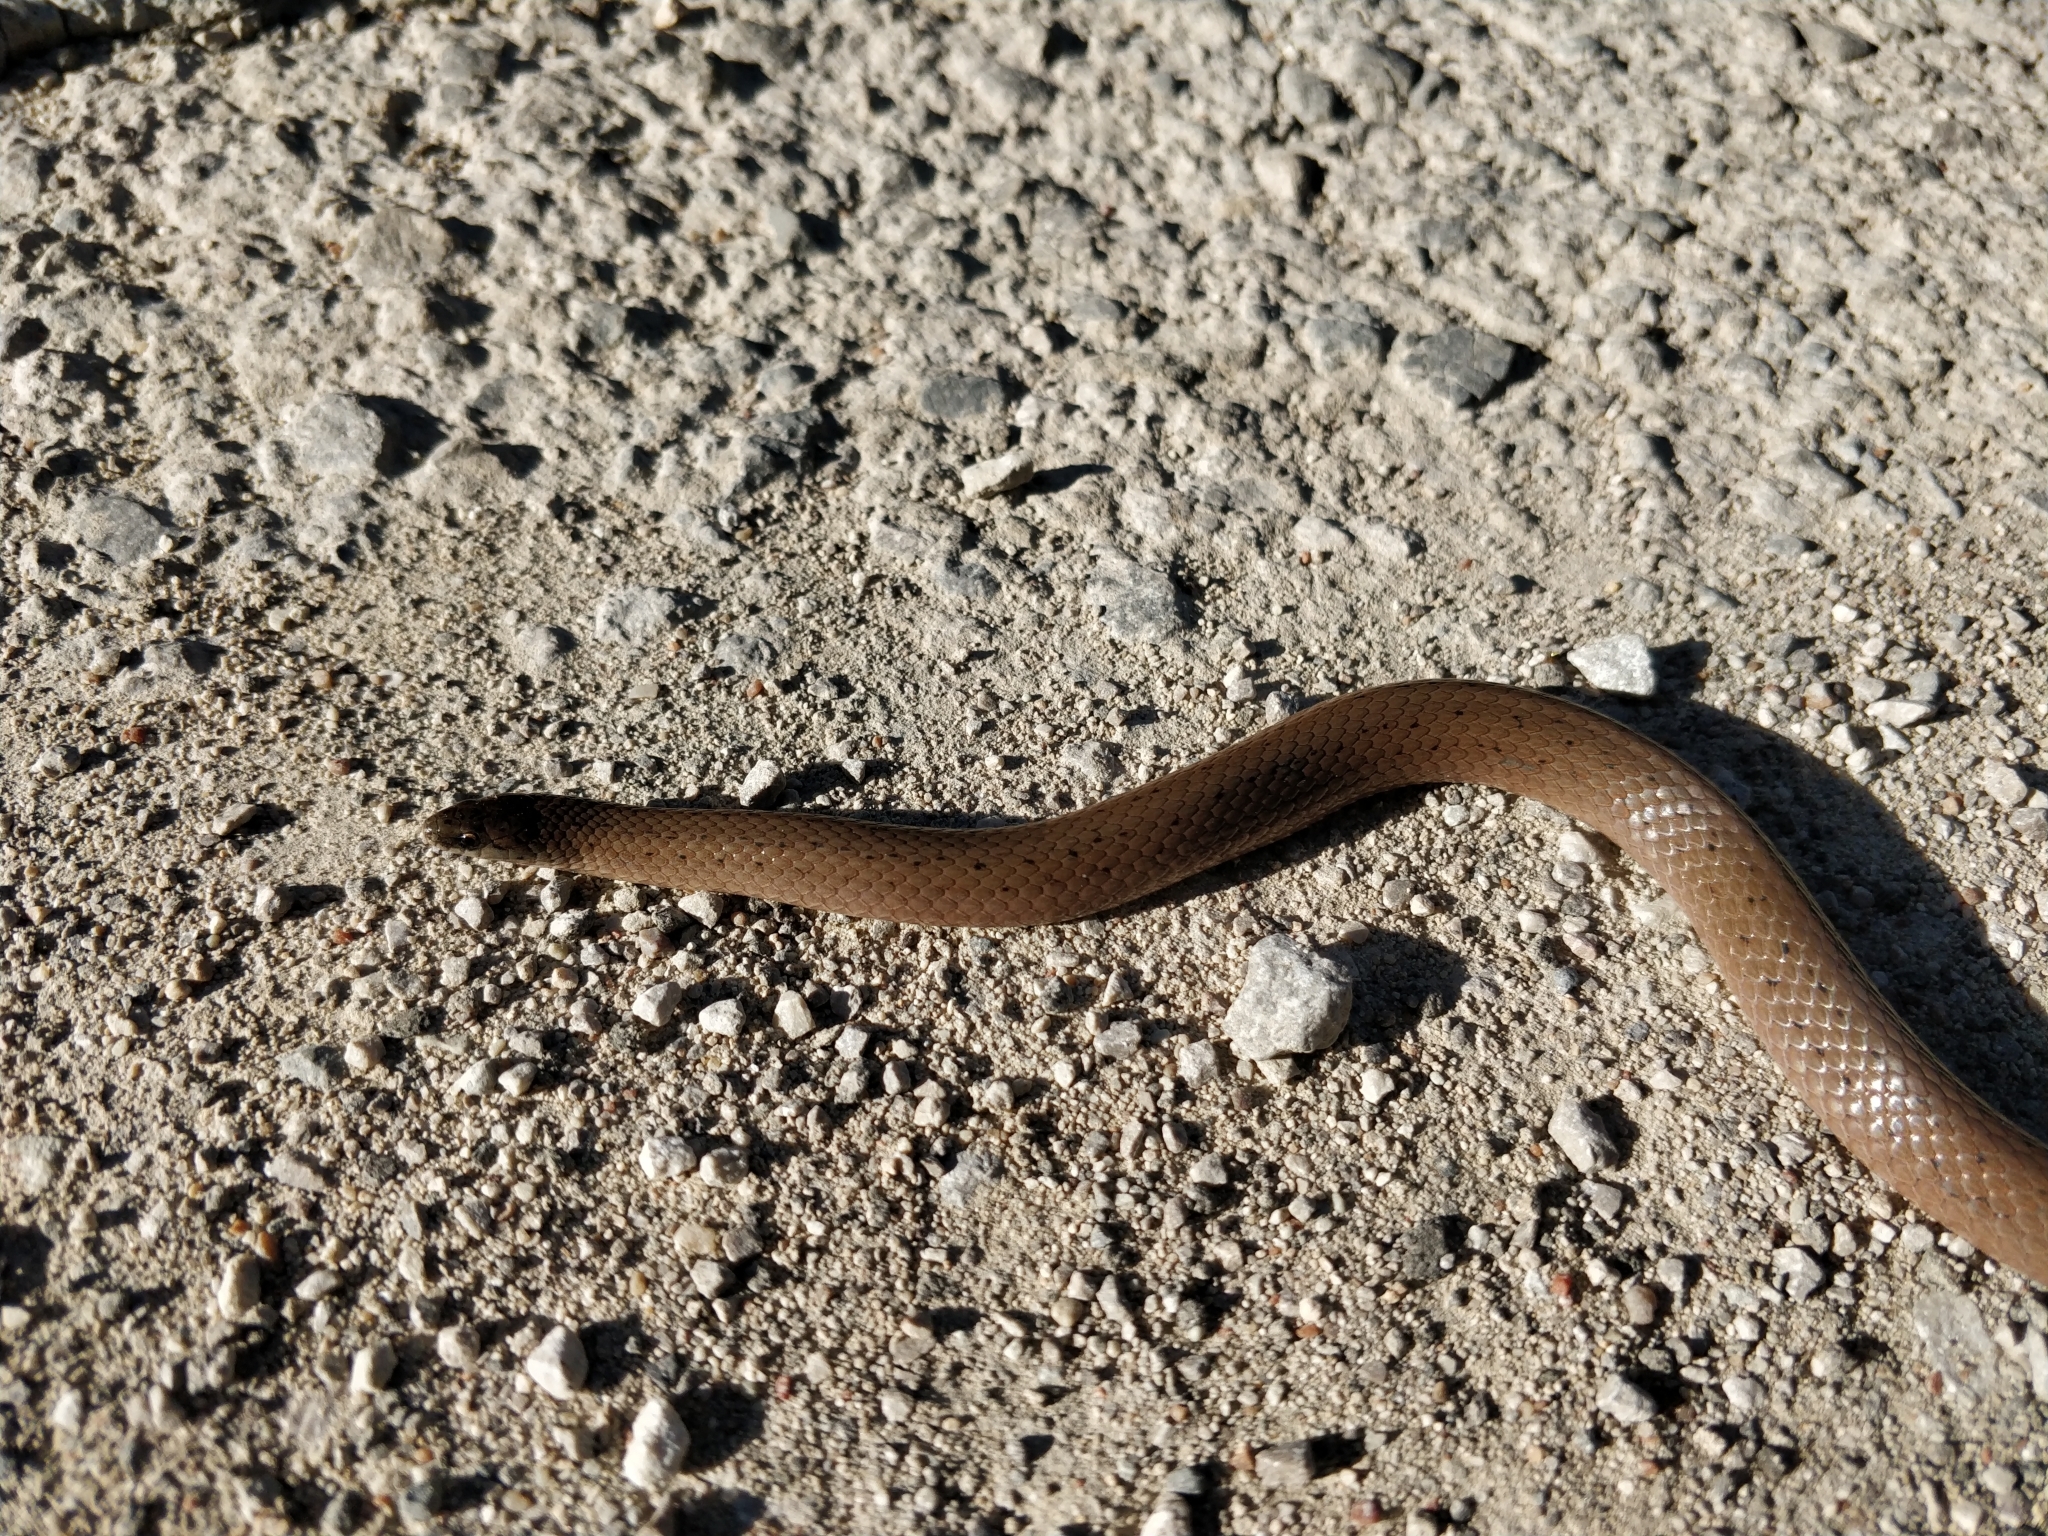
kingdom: Animalia
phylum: Chordata
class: Squamata
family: Colubridae
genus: Virginia
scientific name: Virginia valeriae
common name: Smooth earth snake
